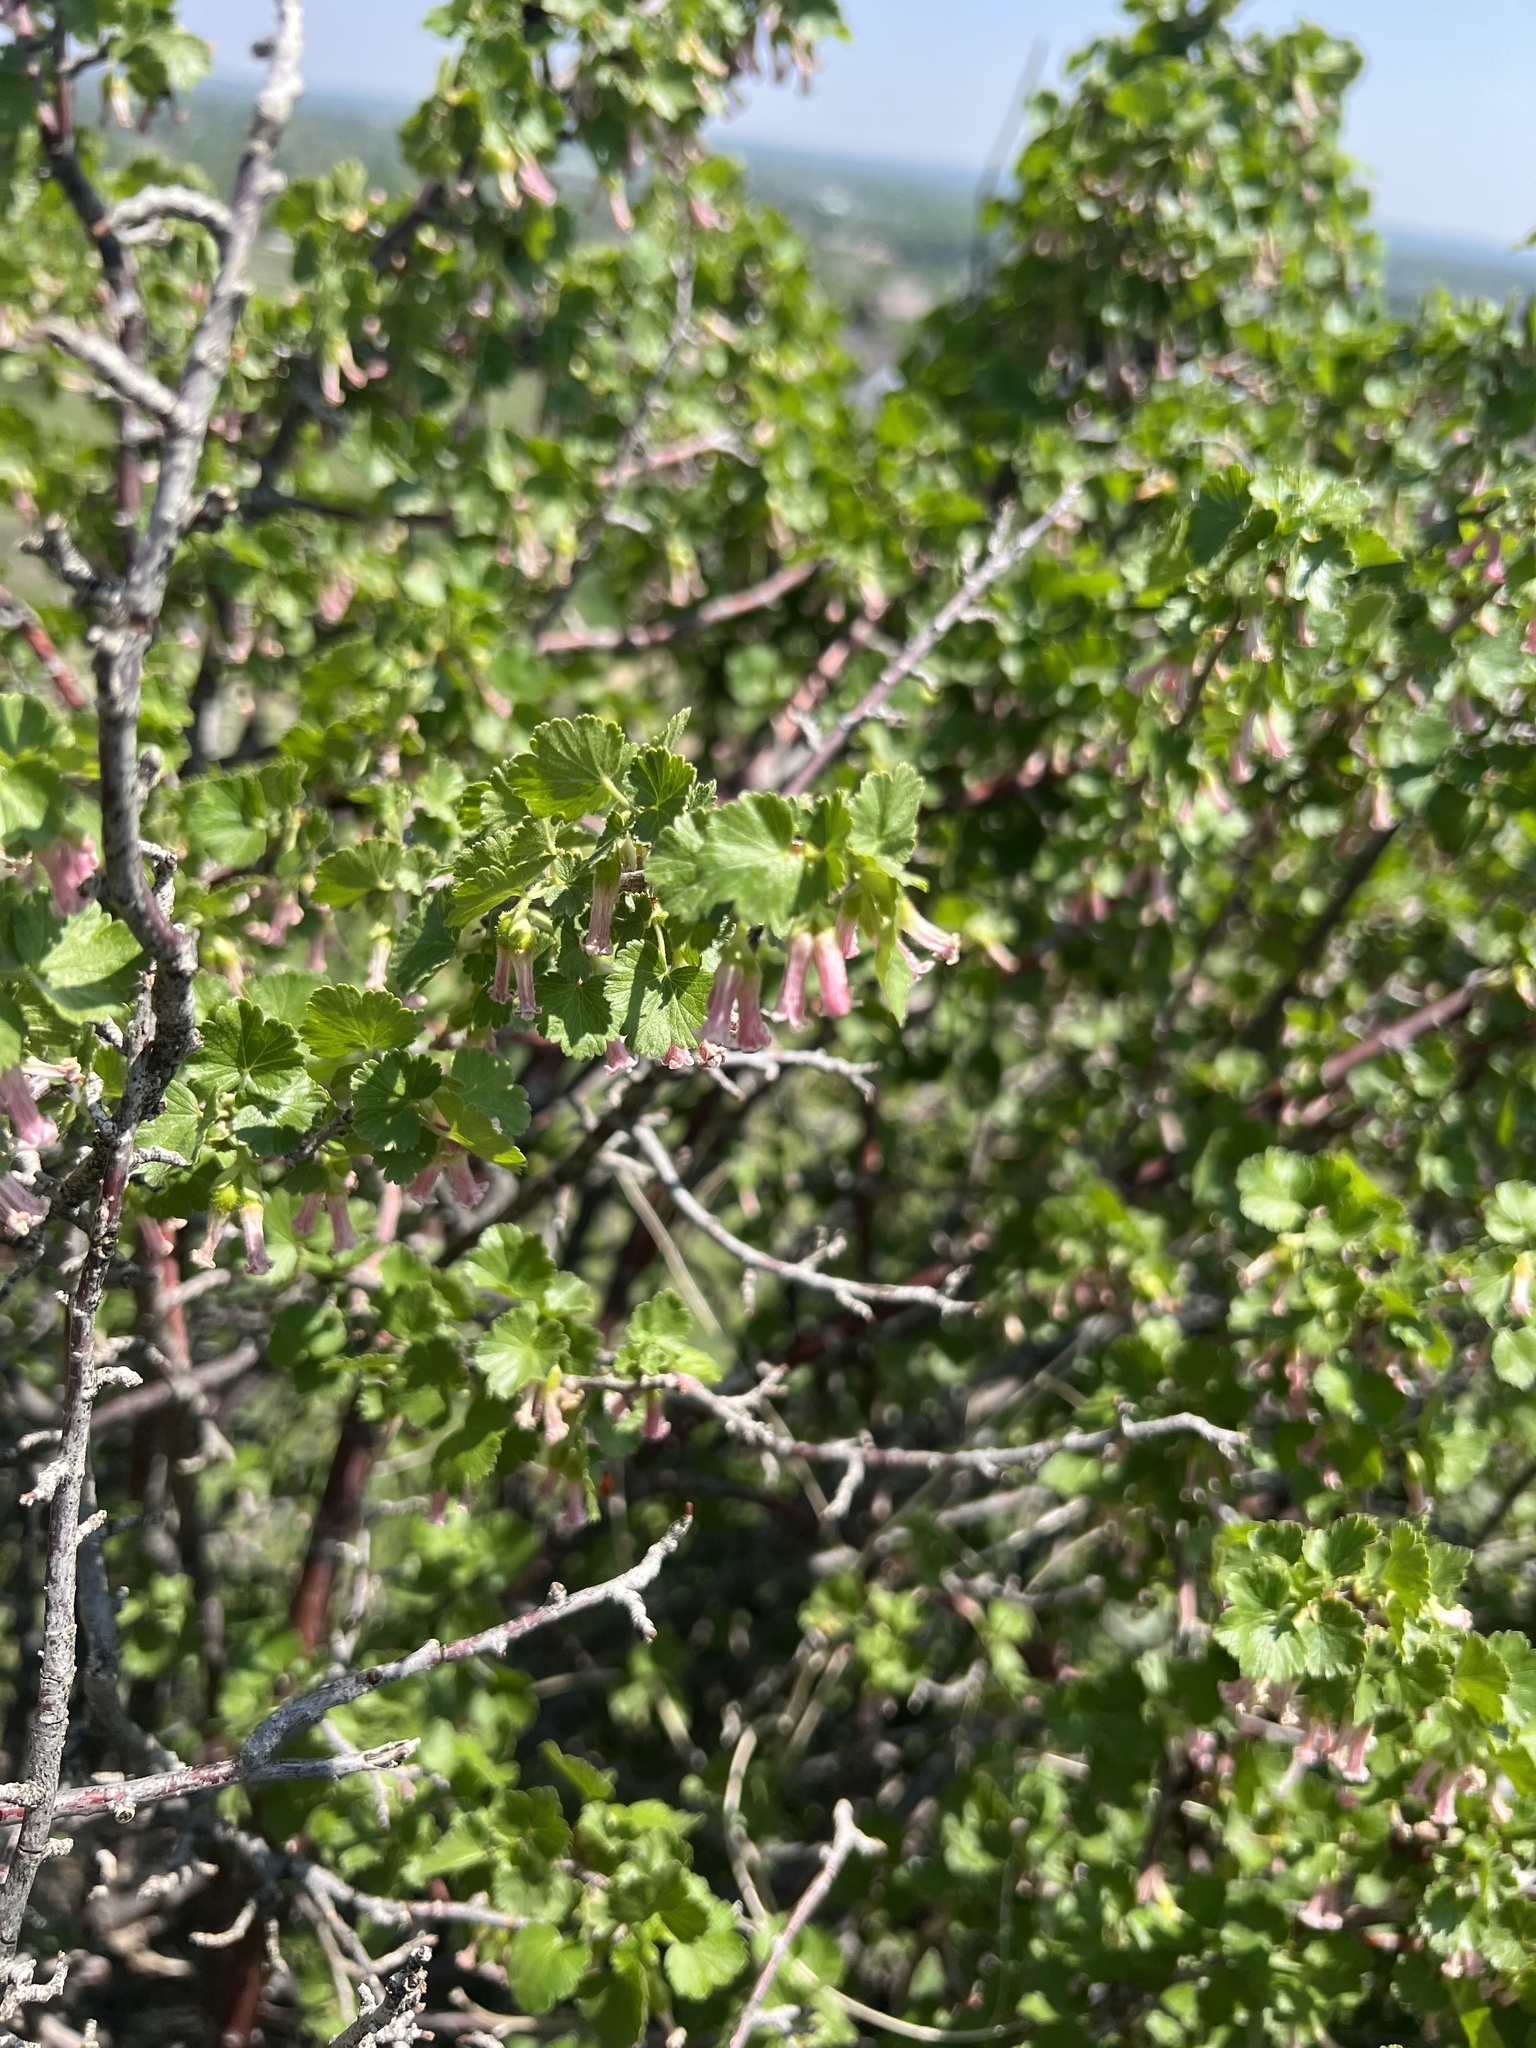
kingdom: Plantae
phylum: Tracheophyta
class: Magnoliopsida
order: Saxifragales
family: Grossulariaceae
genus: Ribes
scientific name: Ribes cereum
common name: Wax currant
